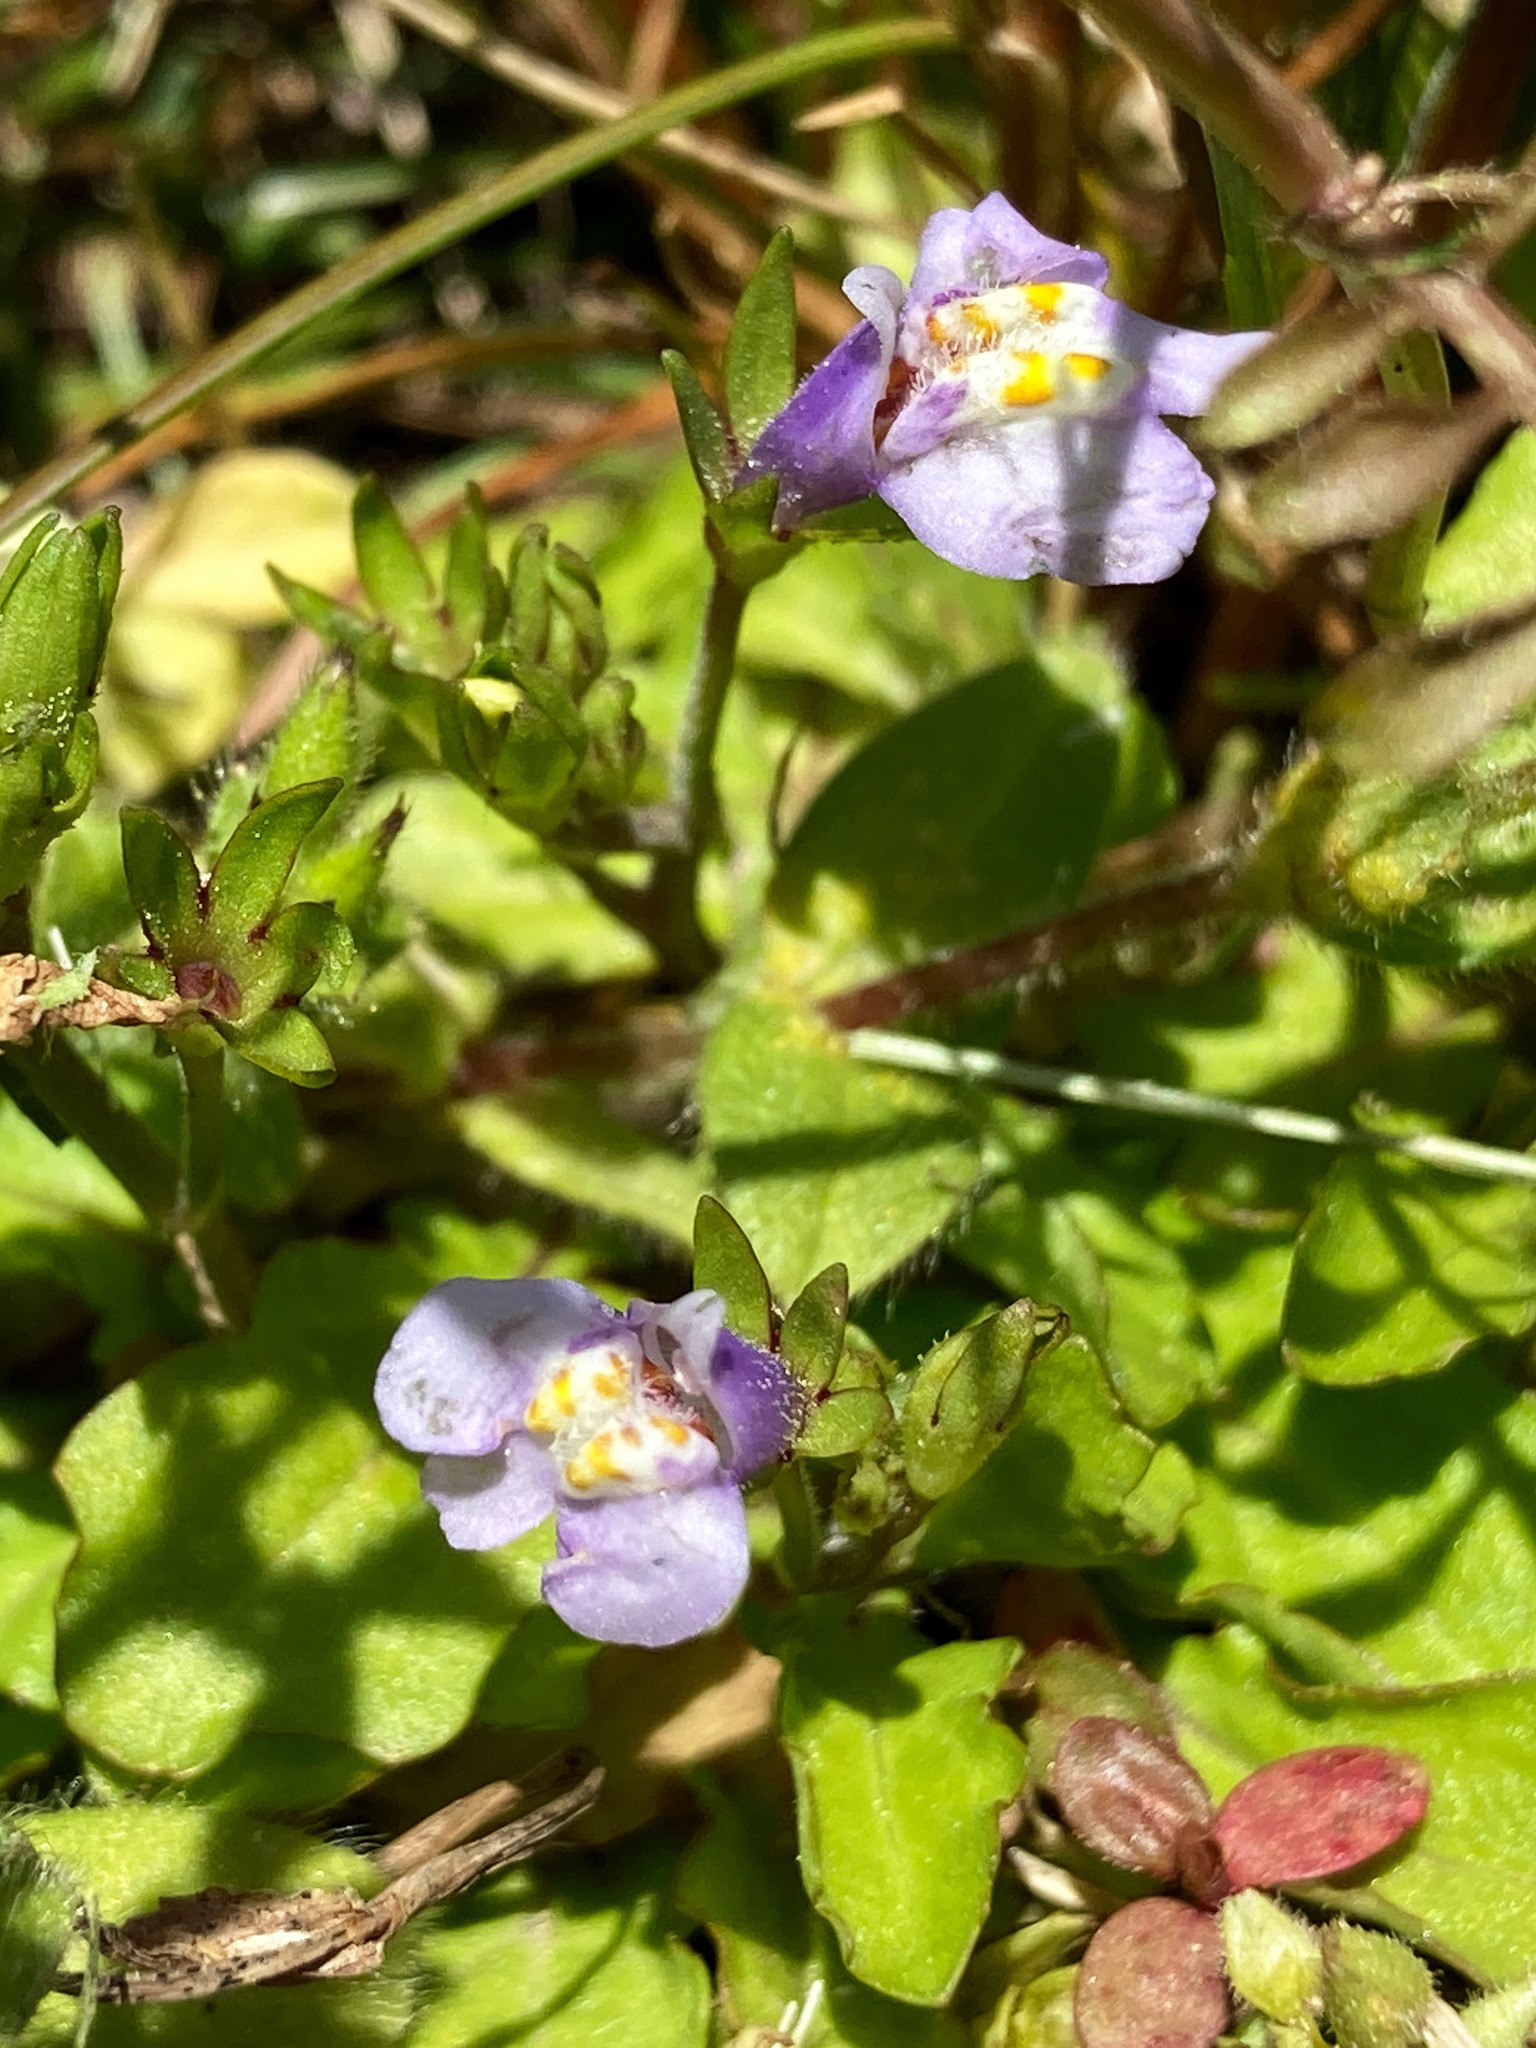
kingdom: Plantae
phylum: Tracheophyta
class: Magnoliopsida
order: Lamiales
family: Mazaceae
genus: Mazus
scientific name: Mazus pumilus
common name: Japanese mazus
